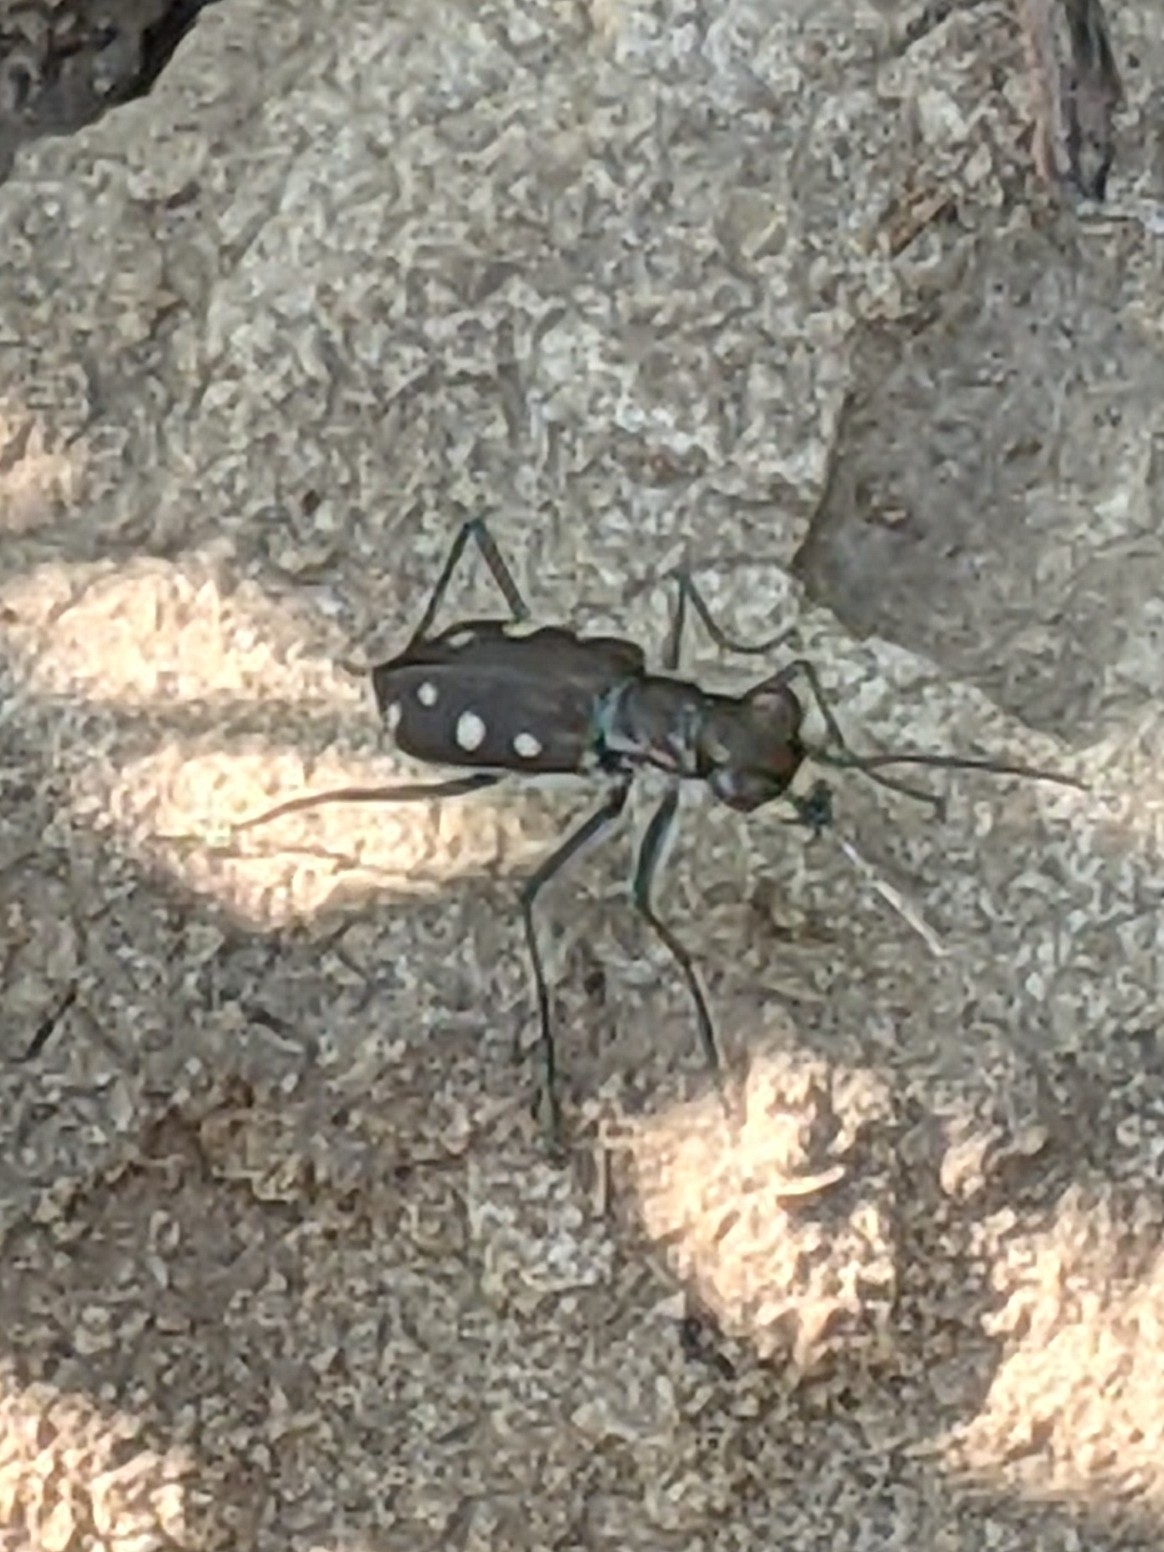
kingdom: Animalia
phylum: Arthropoda
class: Insecta
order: Coleoptera
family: Carabidae
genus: Cicindela
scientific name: Cicindela ocellata
